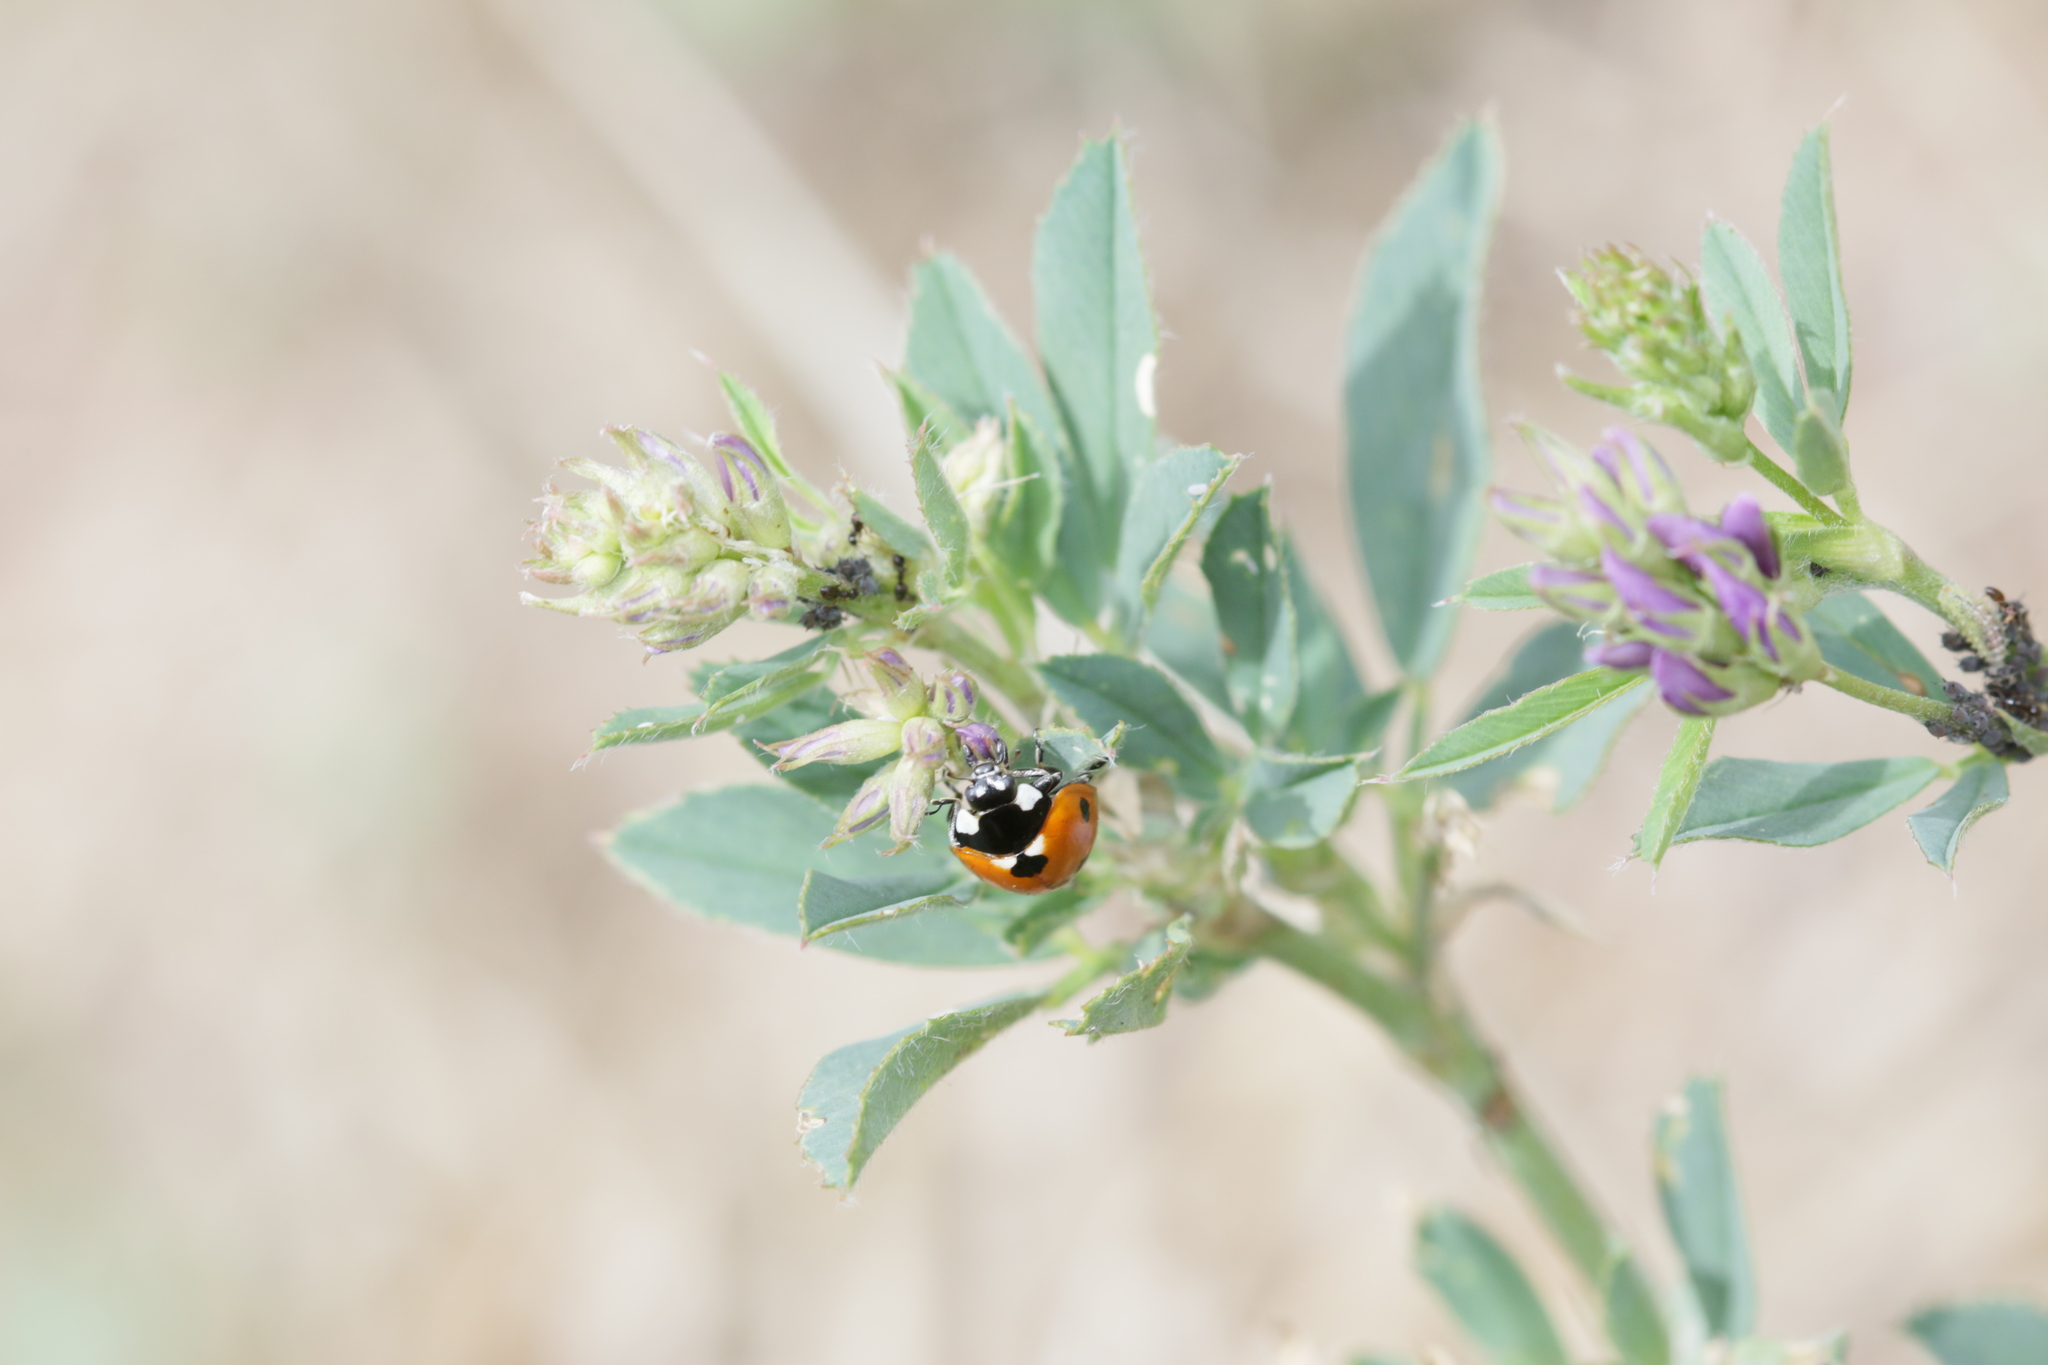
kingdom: Animalia
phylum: Arthropoda
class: Insecta
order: Coleoptera
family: Coccinellidae
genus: Coccinella
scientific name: Coccinella septempunctata
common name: Sevenspotted lady beetle
